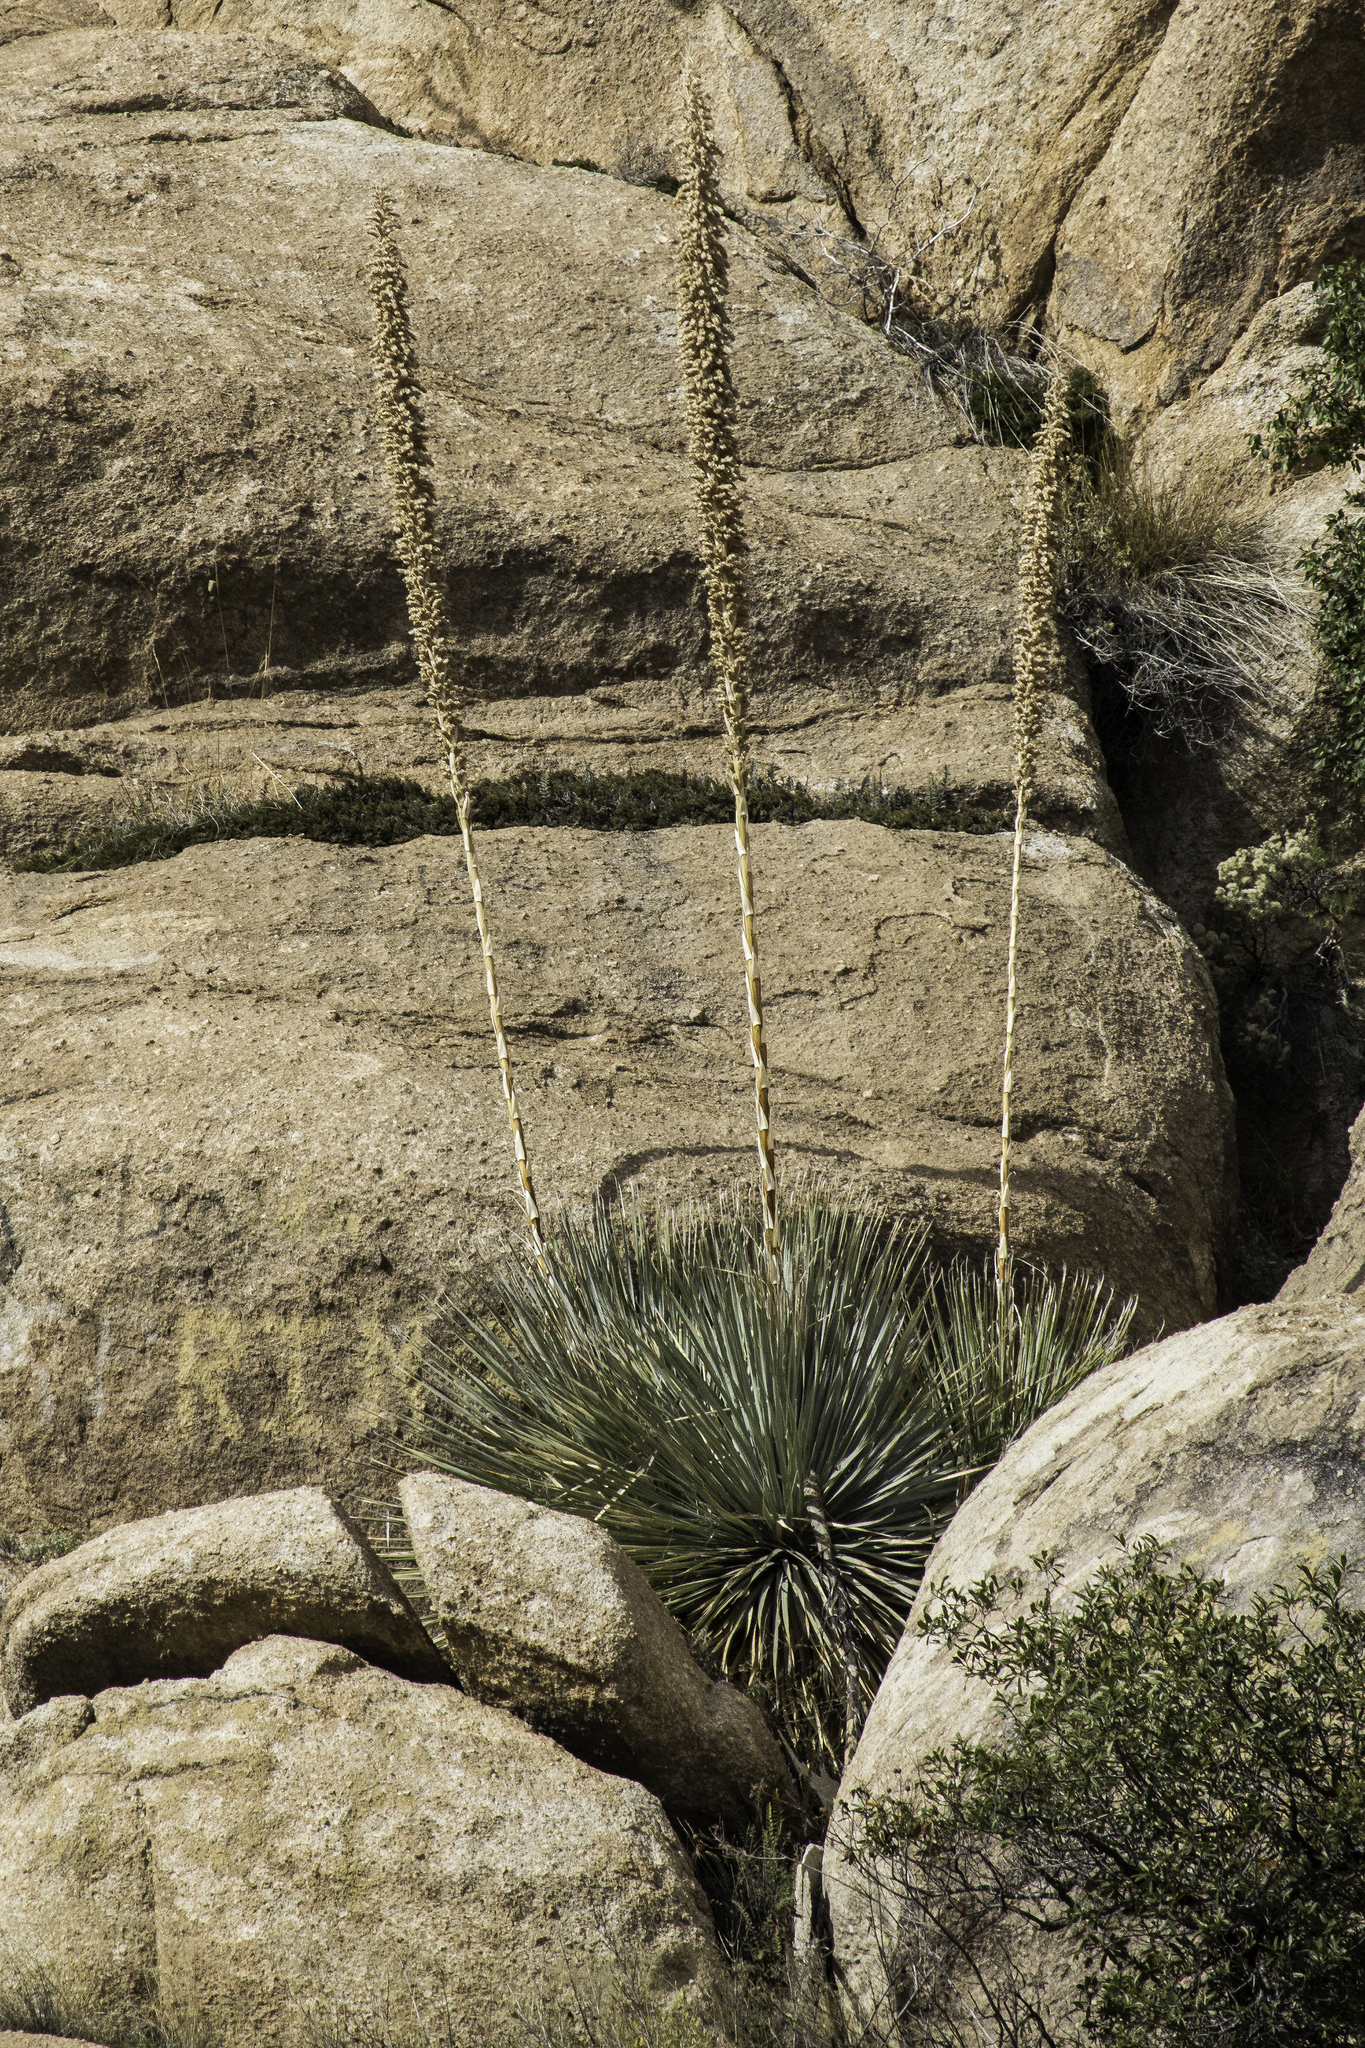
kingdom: Plantae
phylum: Tracheophyta
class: Liliopsida
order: Asparagales
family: Asparagaceae
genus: Dasylirion
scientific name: Dasylirion wheeleri
